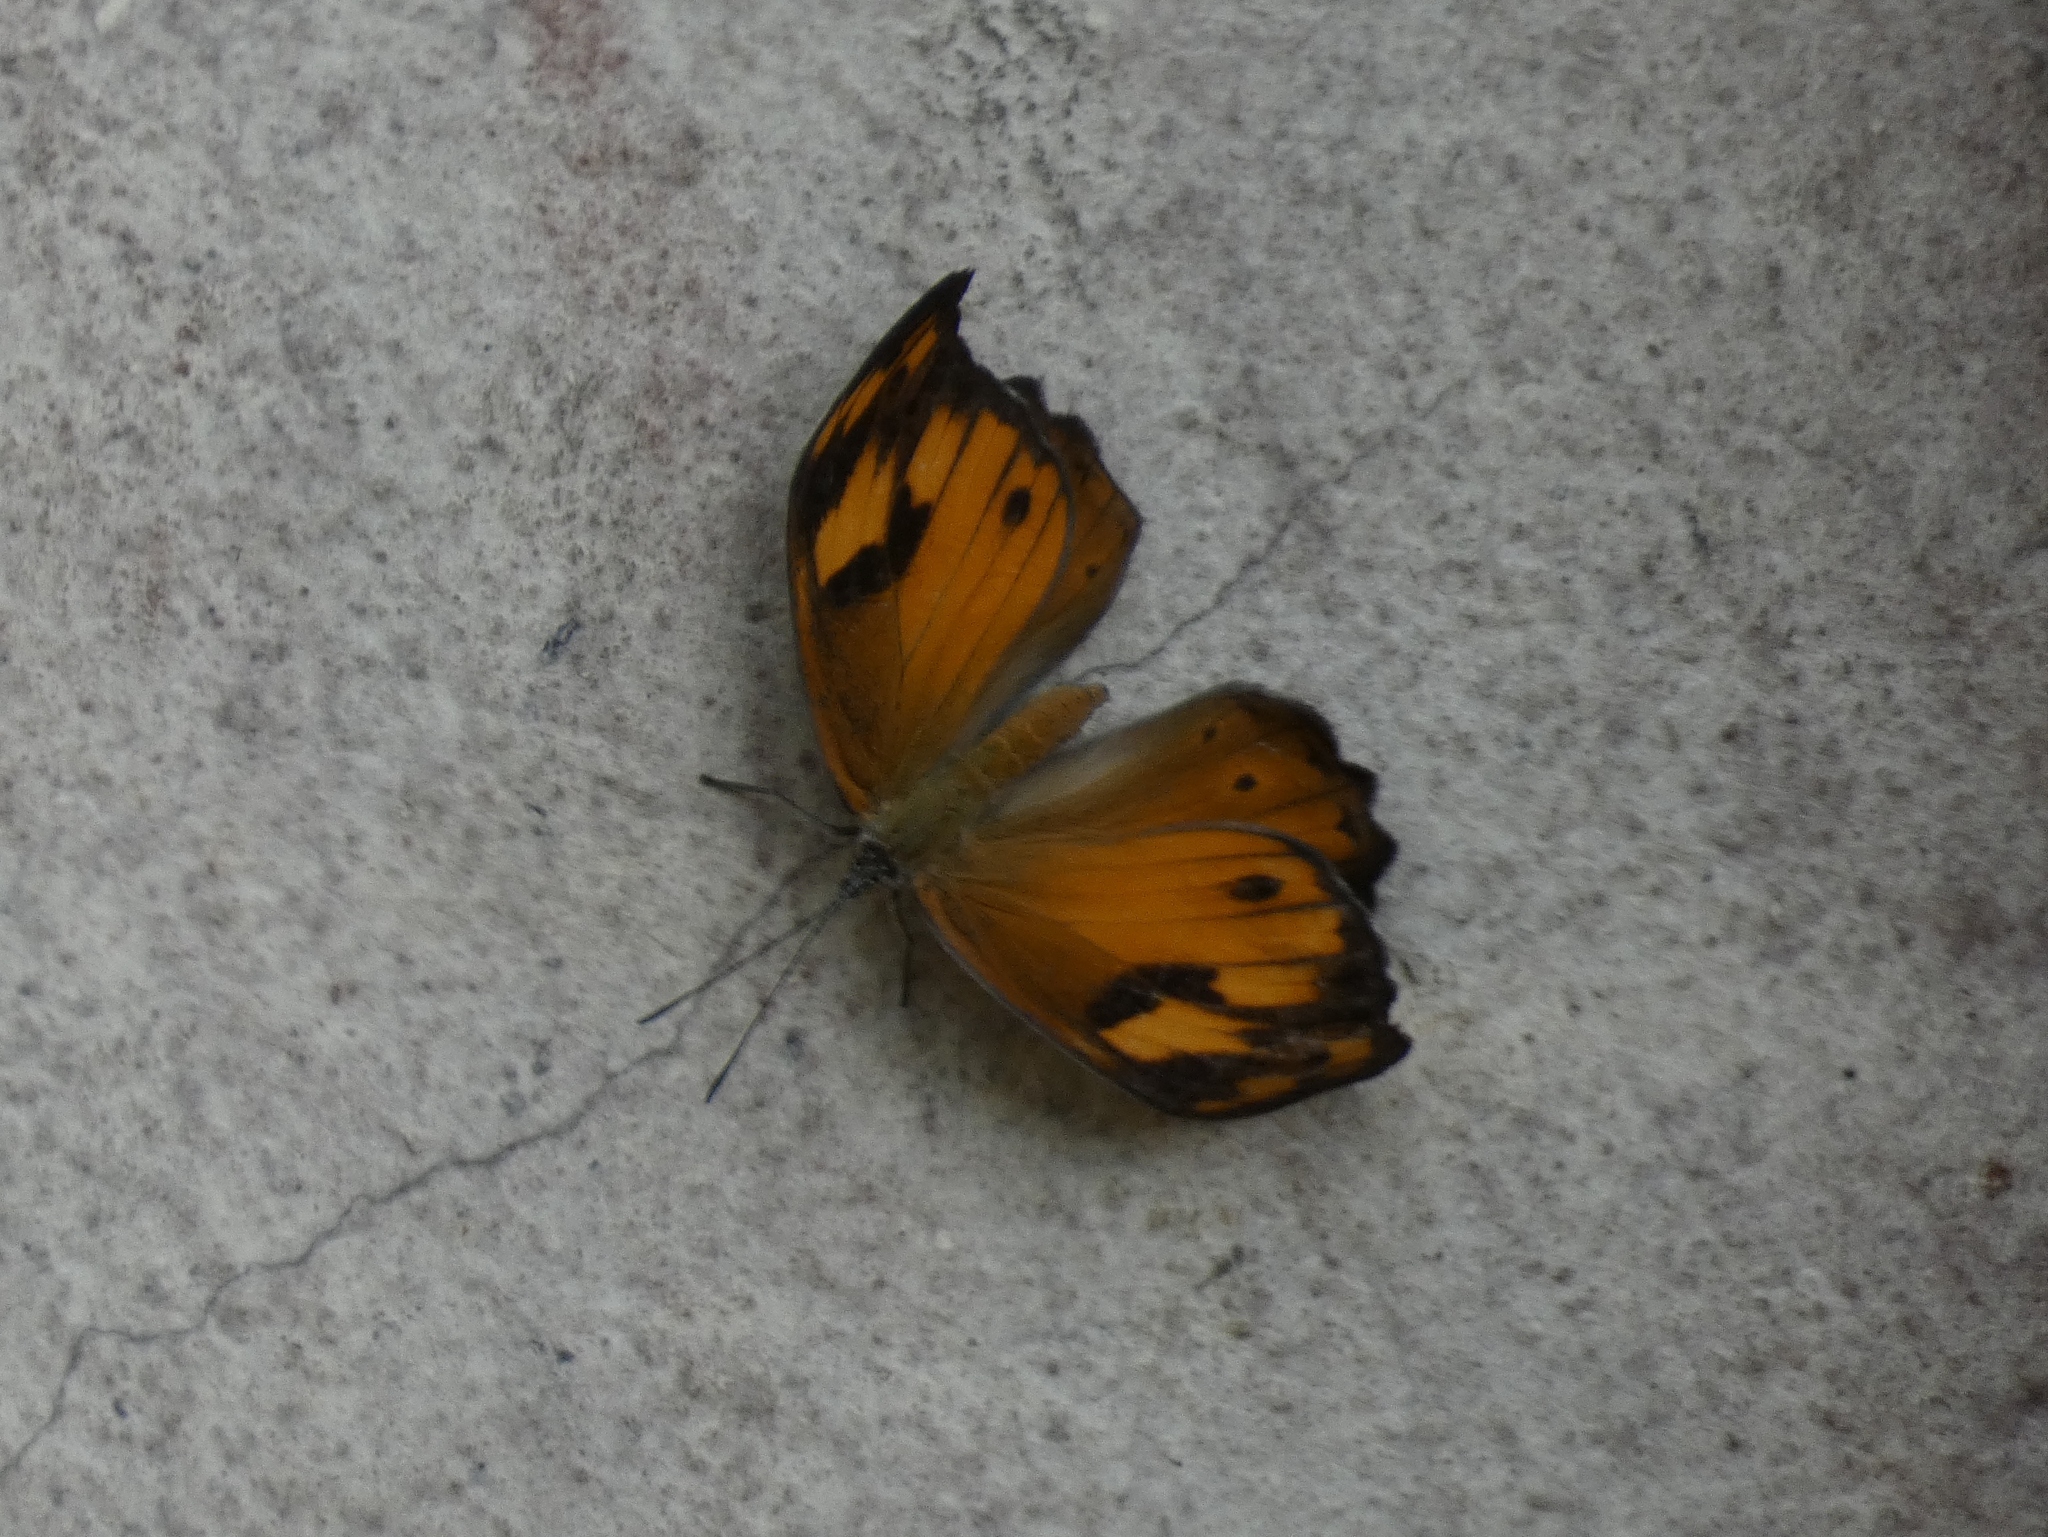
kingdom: Animalia
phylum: Arthropoda
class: Insecta
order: Lepidoptera
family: Nymphalidae
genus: Sevenia
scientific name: Sevenia
